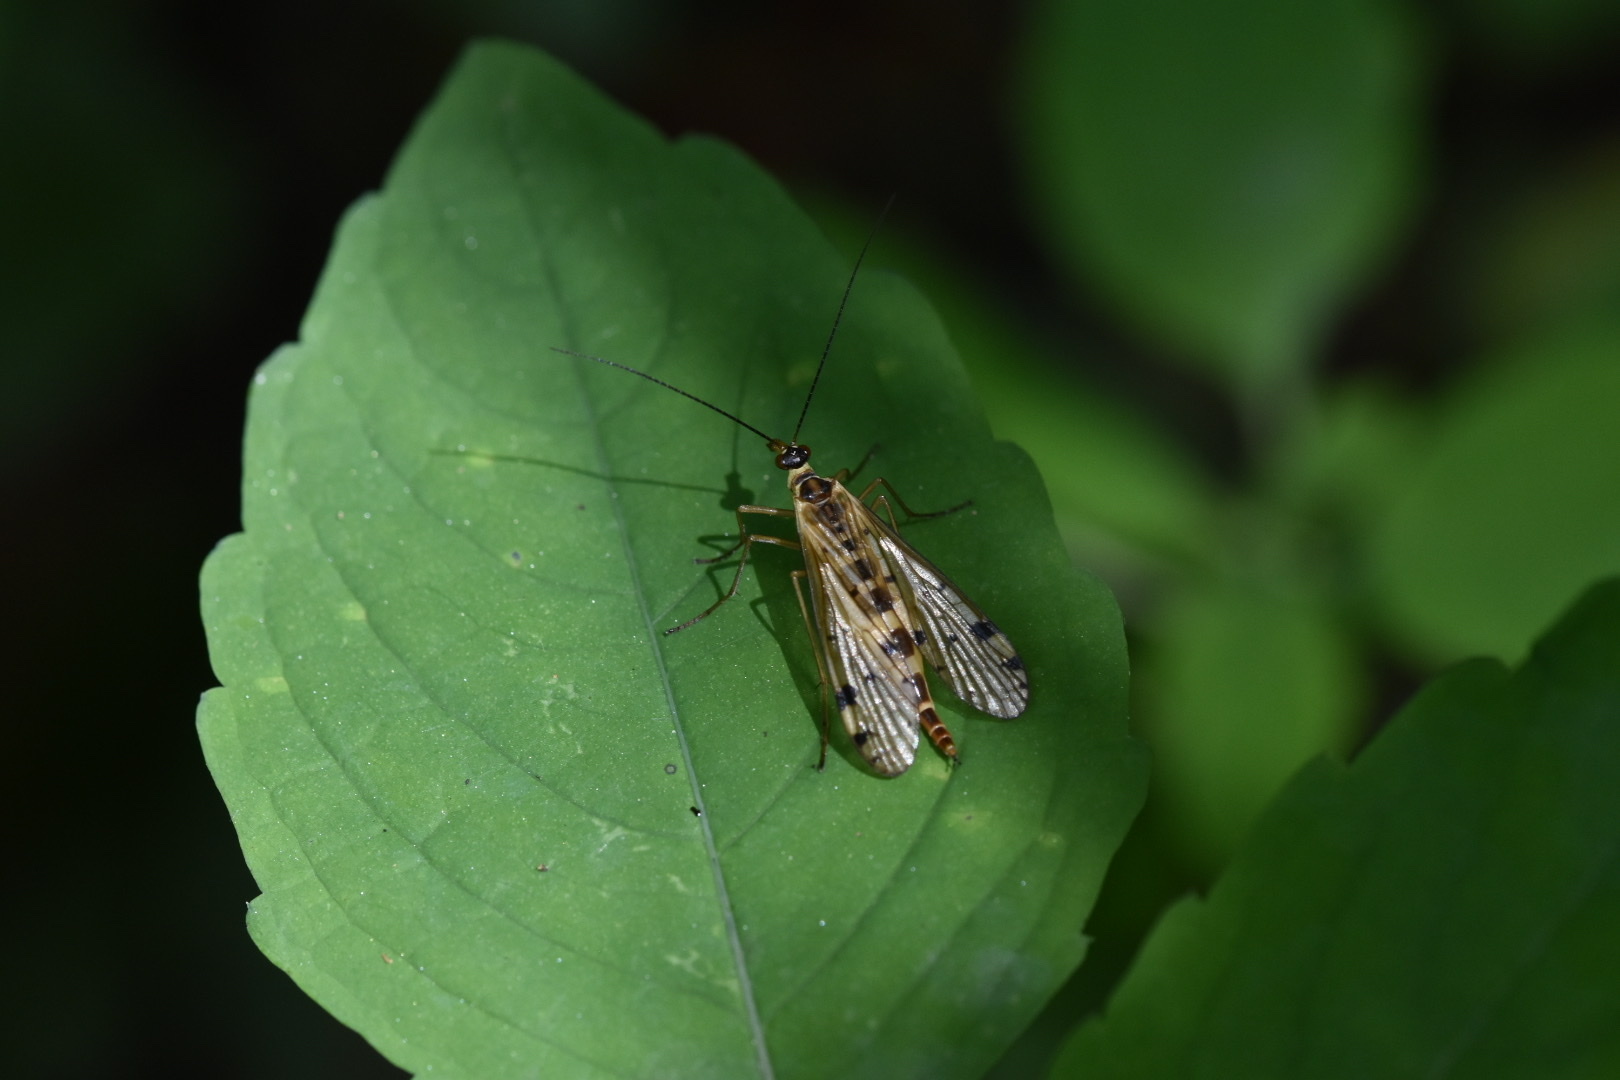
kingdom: Animalia
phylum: Arthropoda
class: Insecta
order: Mecoptera
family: Panorpidae
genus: Panorpa
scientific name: Panorpa alpina
